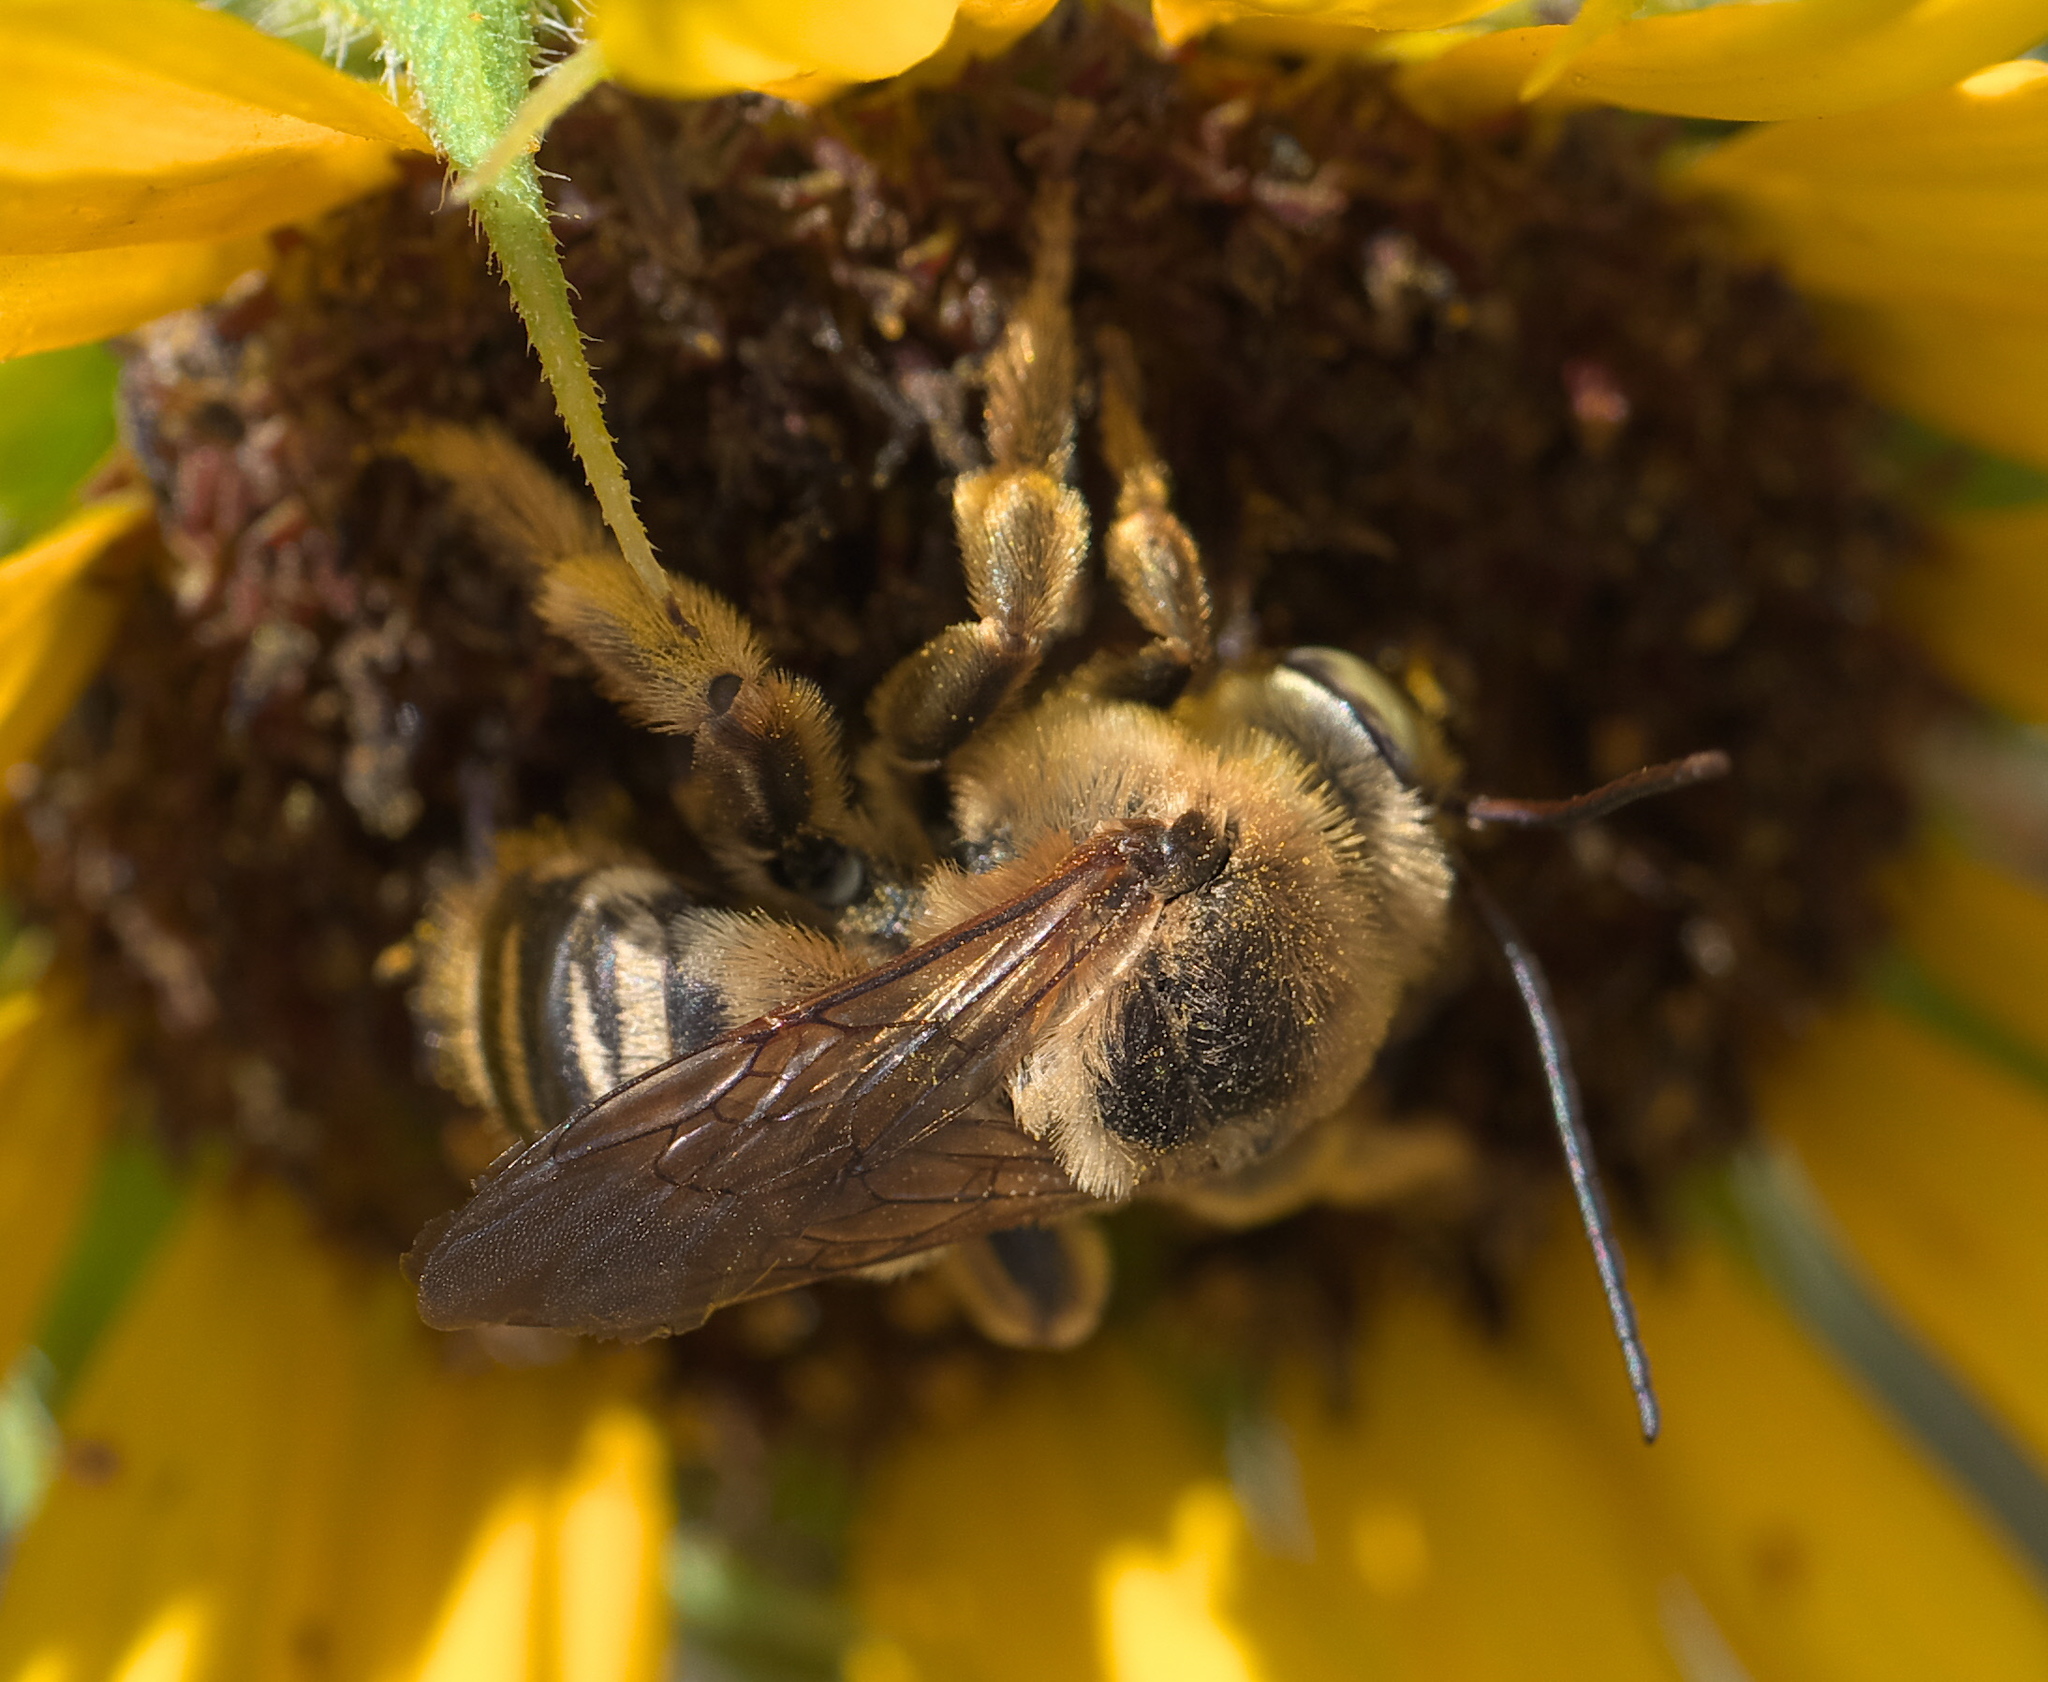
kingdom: Animalia
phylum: Arthropoda
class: Insecta
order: Hymenoptera
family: Apidae
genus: Svastra
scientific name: Svastra obliqua
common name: Oblique longhorn
